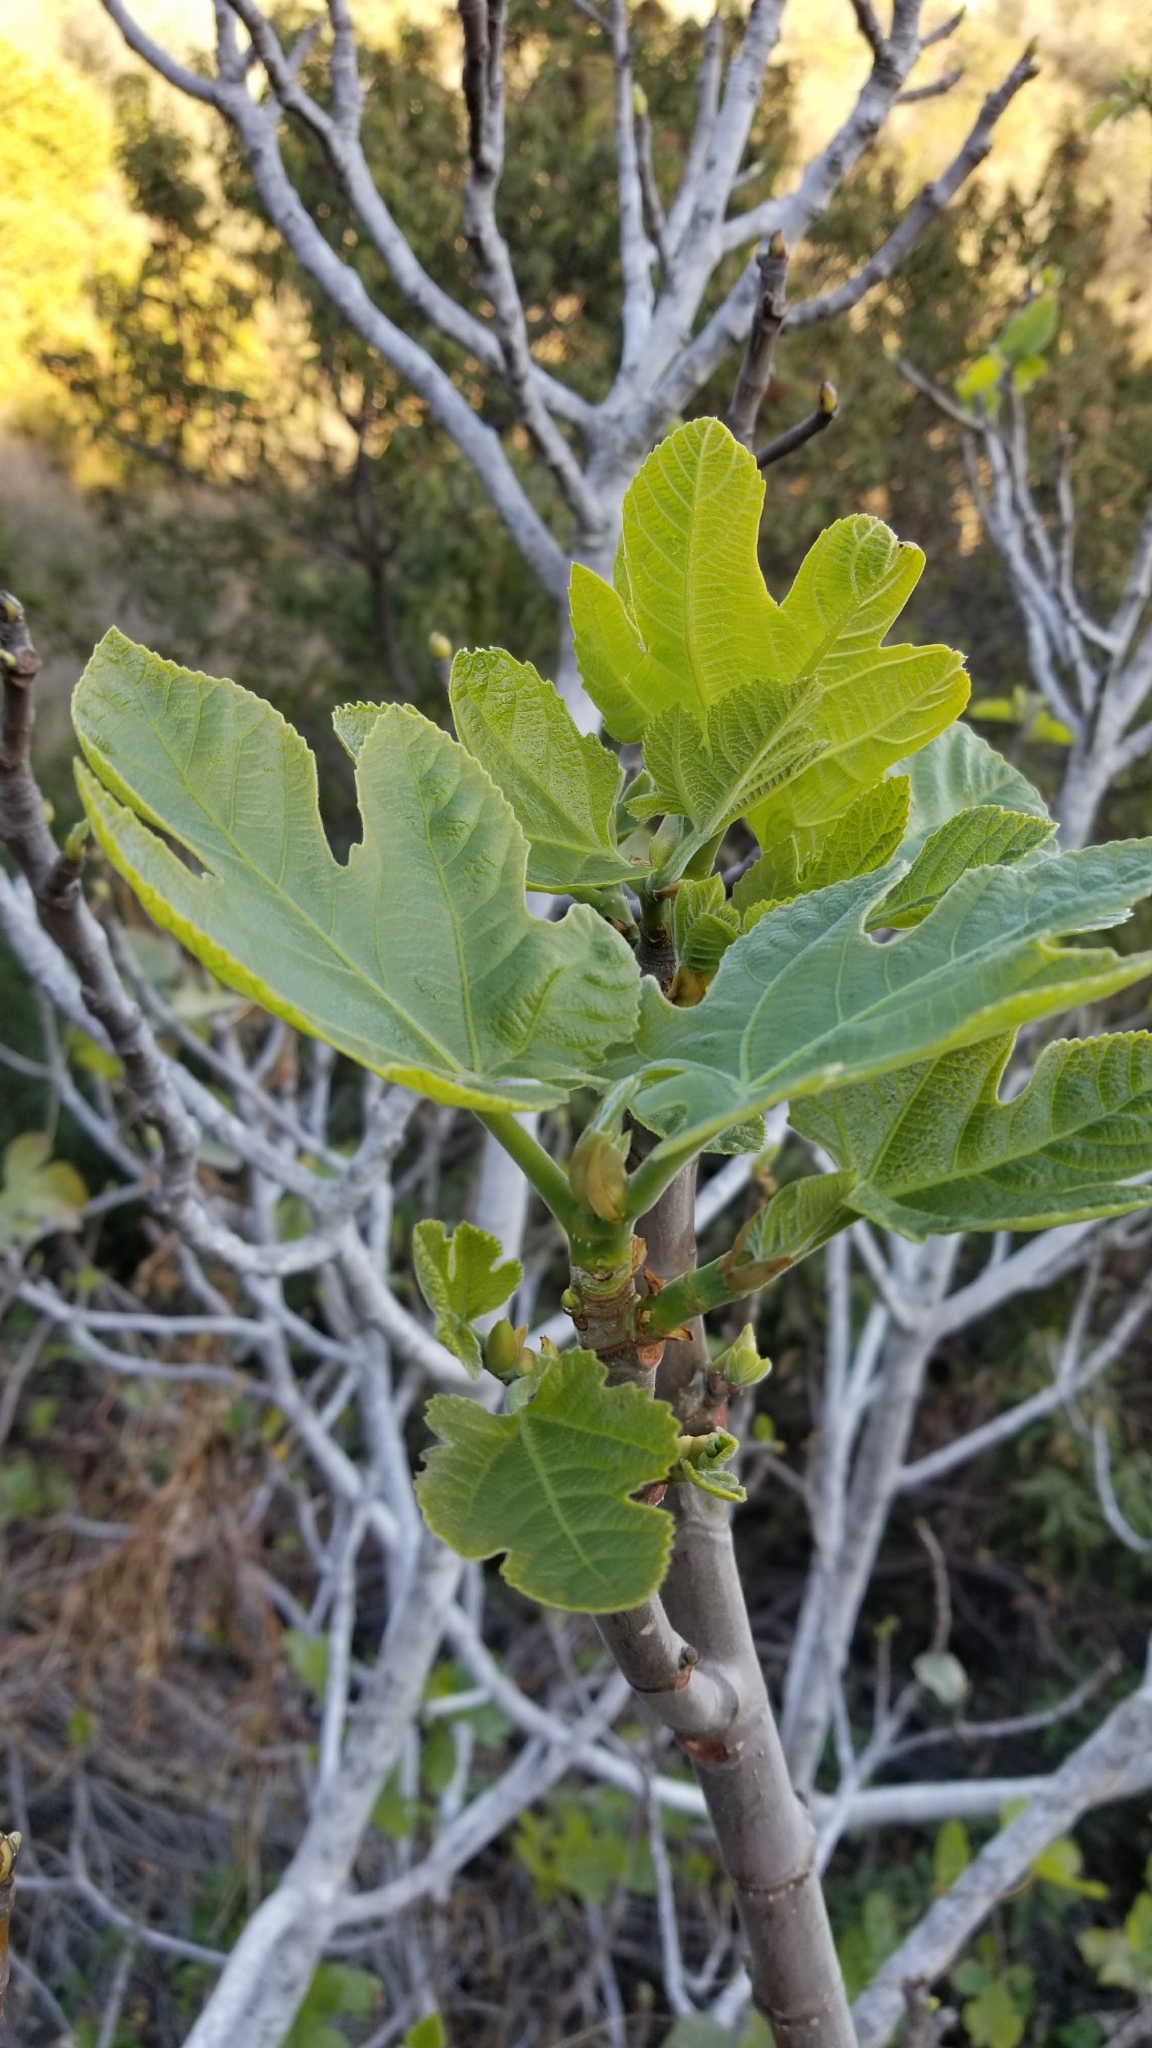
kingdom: Plantae
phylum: Tracheophyta
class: Magnoliopsida
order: Rosales
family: Moraceae
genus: Ficus
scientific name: Ficus carica
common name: Fig
